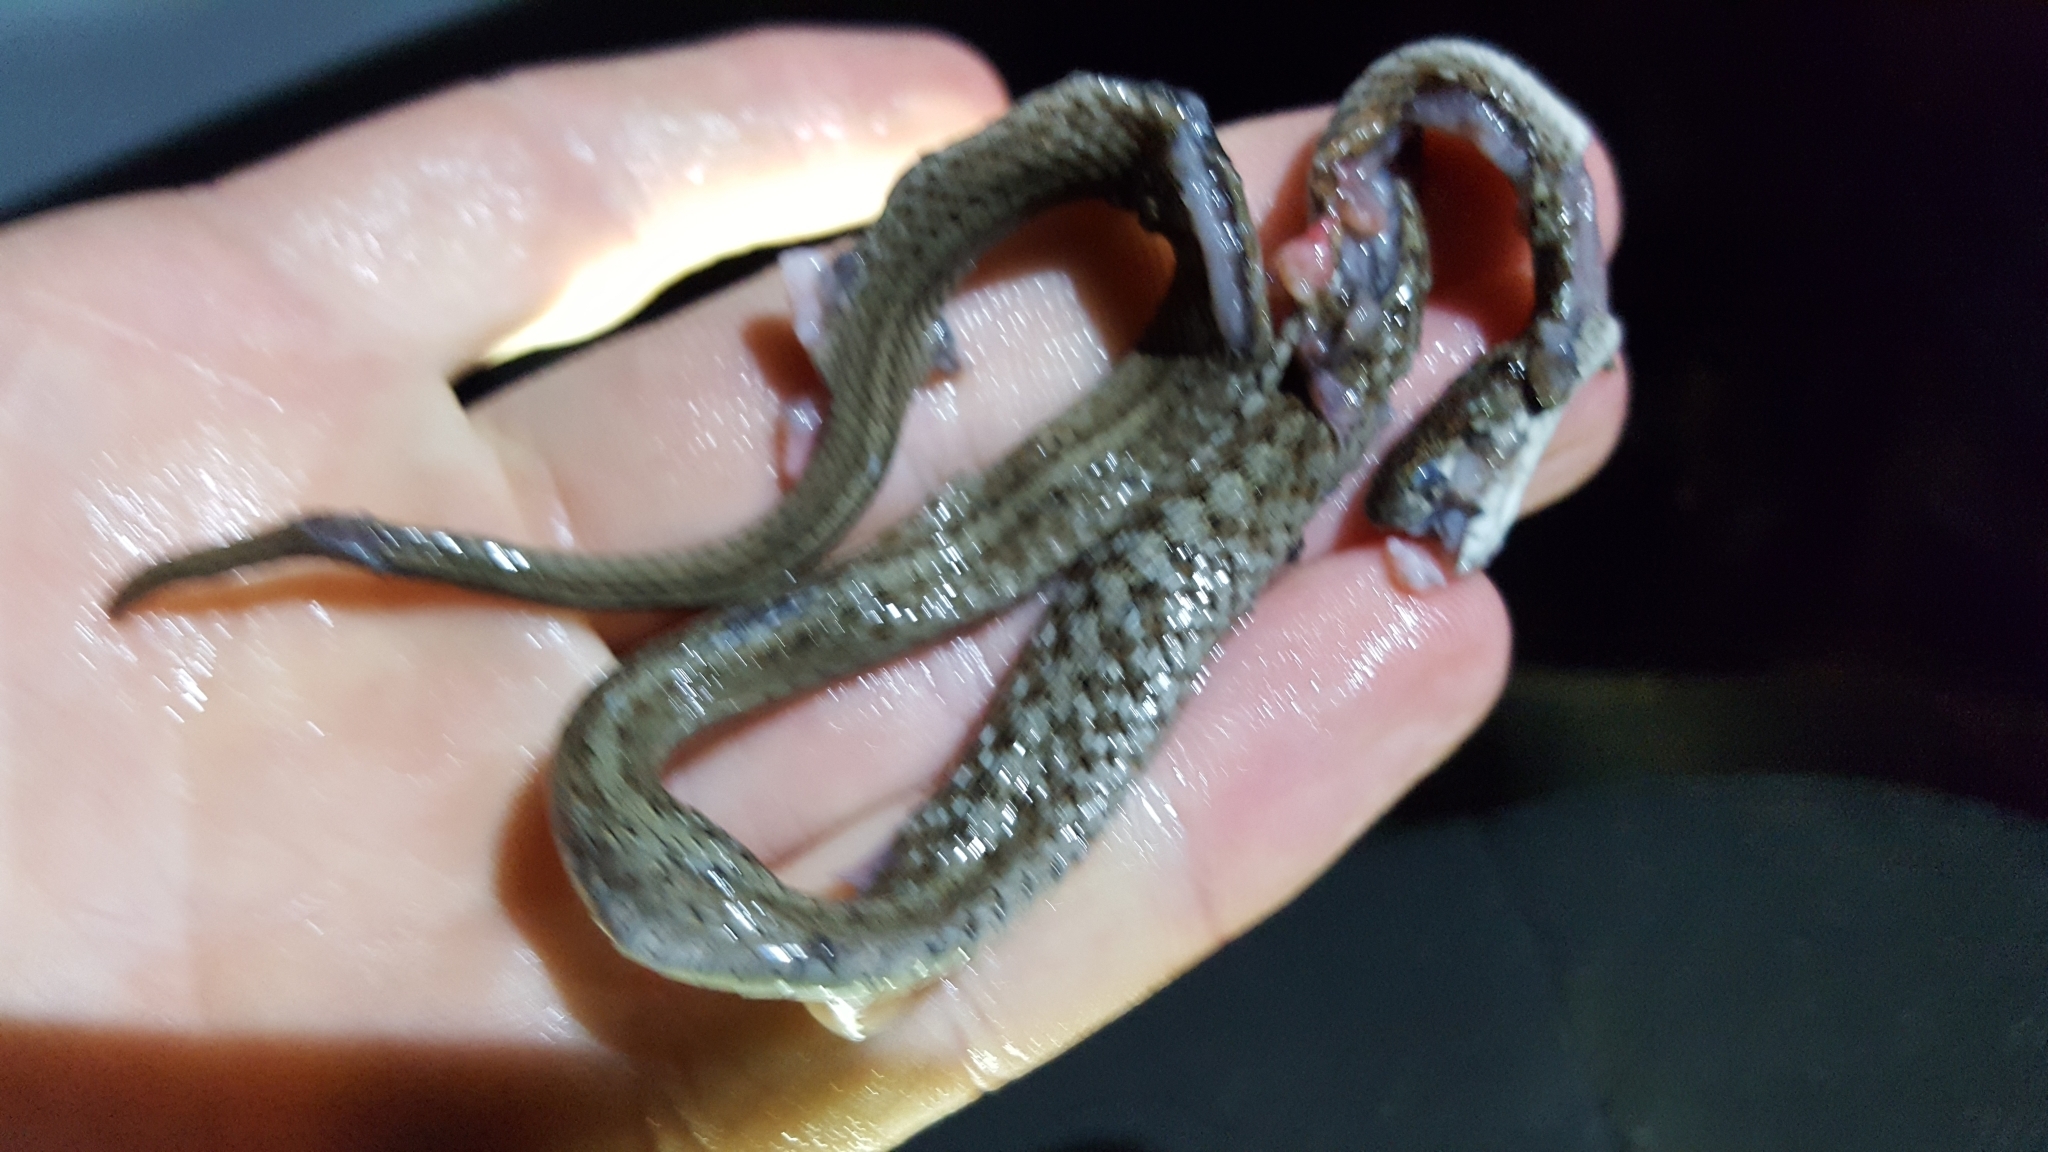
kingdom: Animalia
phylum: Chordata
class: Squamata
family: Colubridae
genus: Storeria
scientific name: Storeria dekayi
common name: (dekay’s) brown snake
